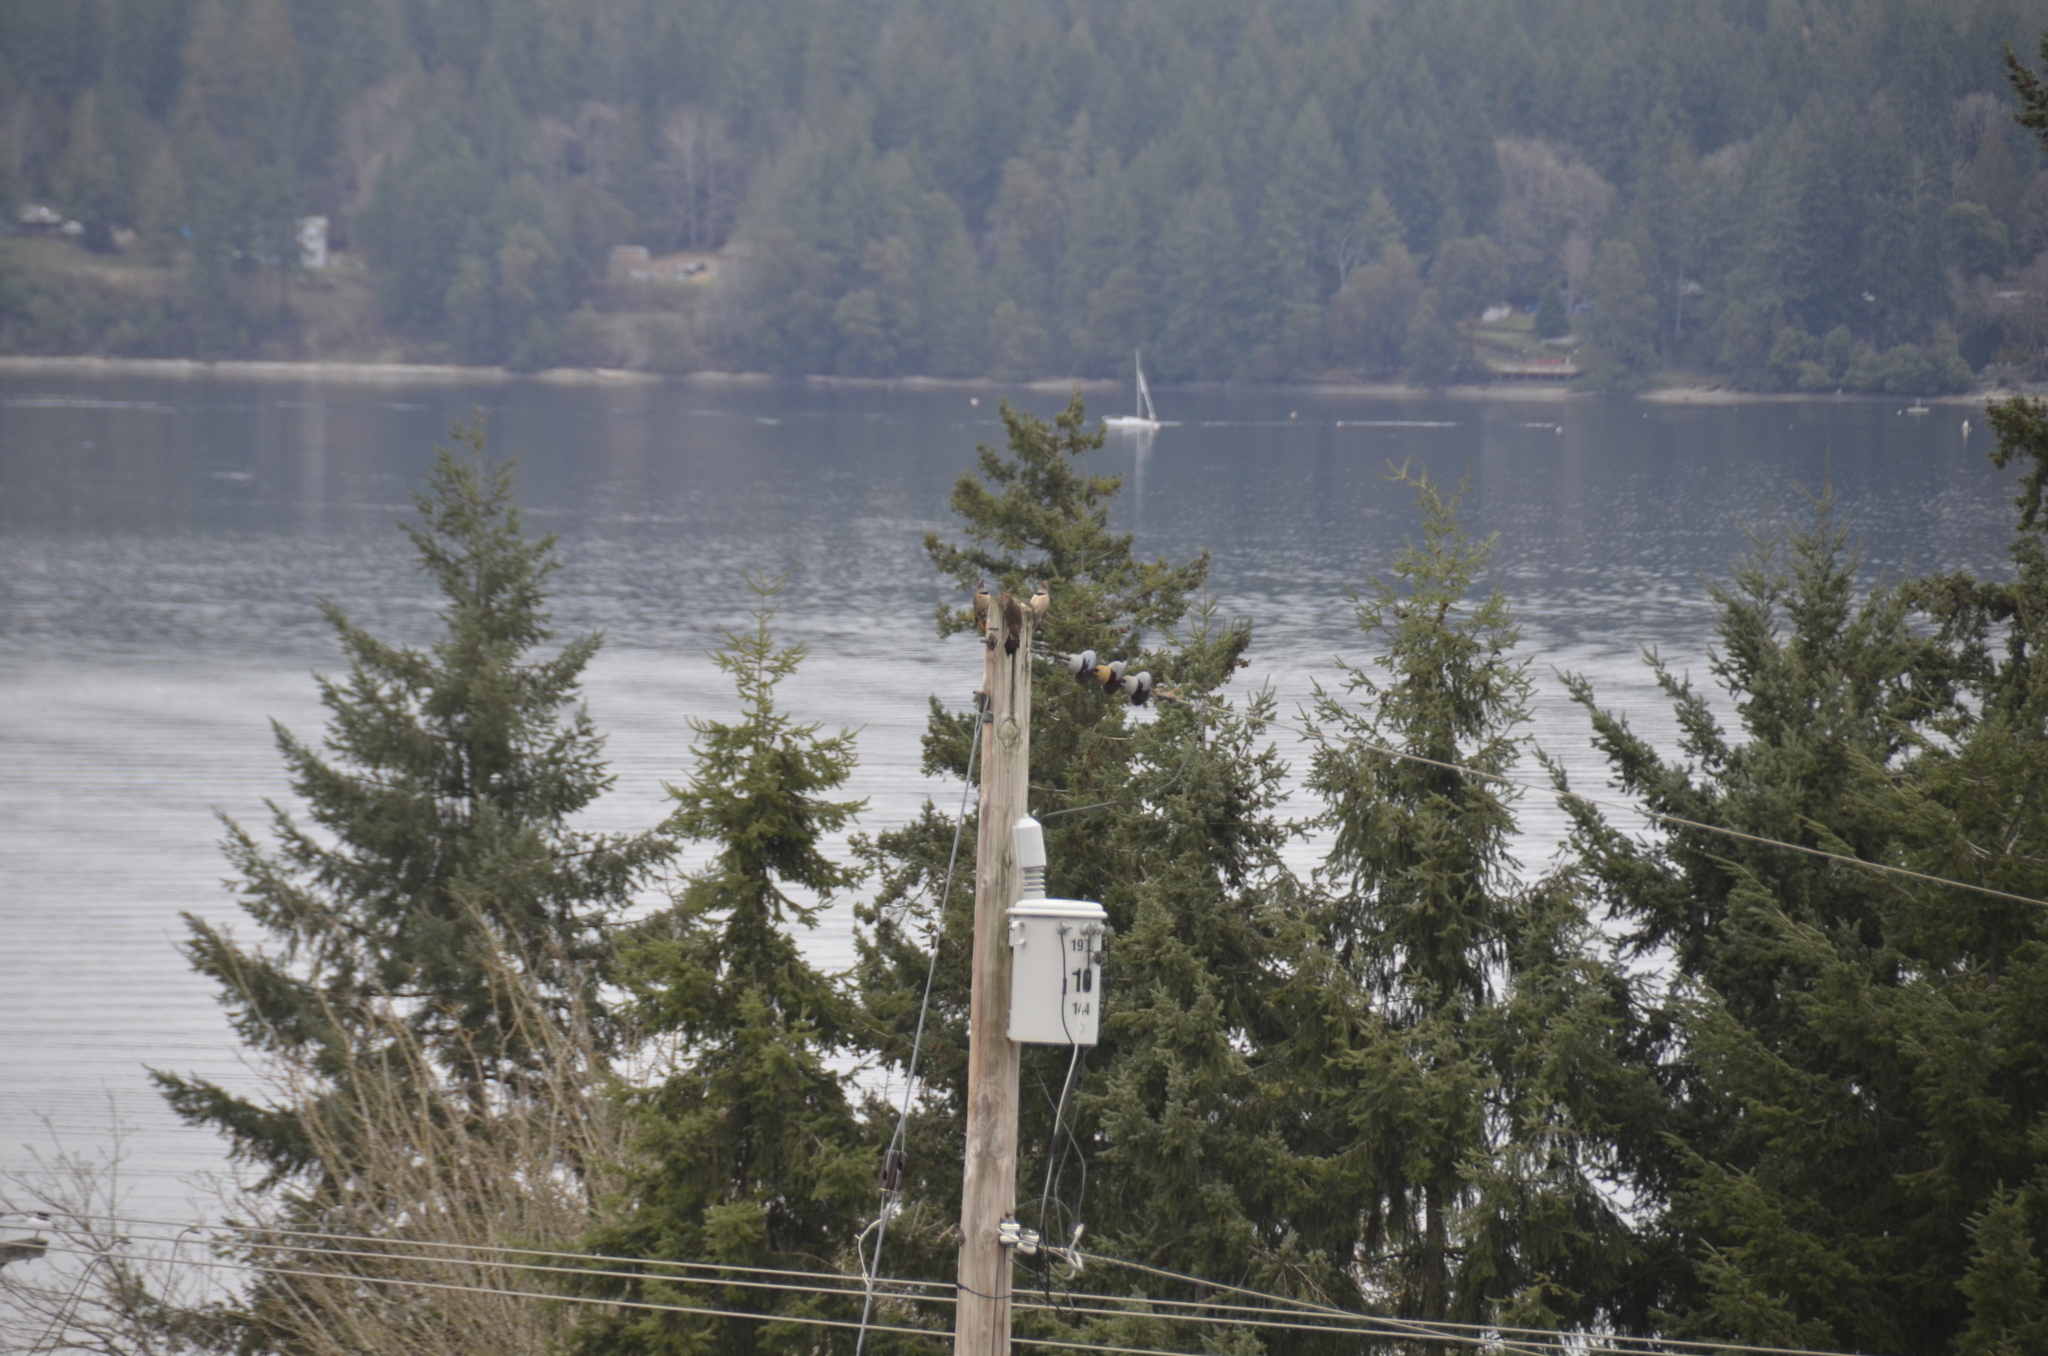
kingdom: Animalia
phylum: Chordata
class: Aves
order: Piciformes
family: Picidae
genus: Colaptes
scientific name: Colaptes auratus
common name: Northern flicker
